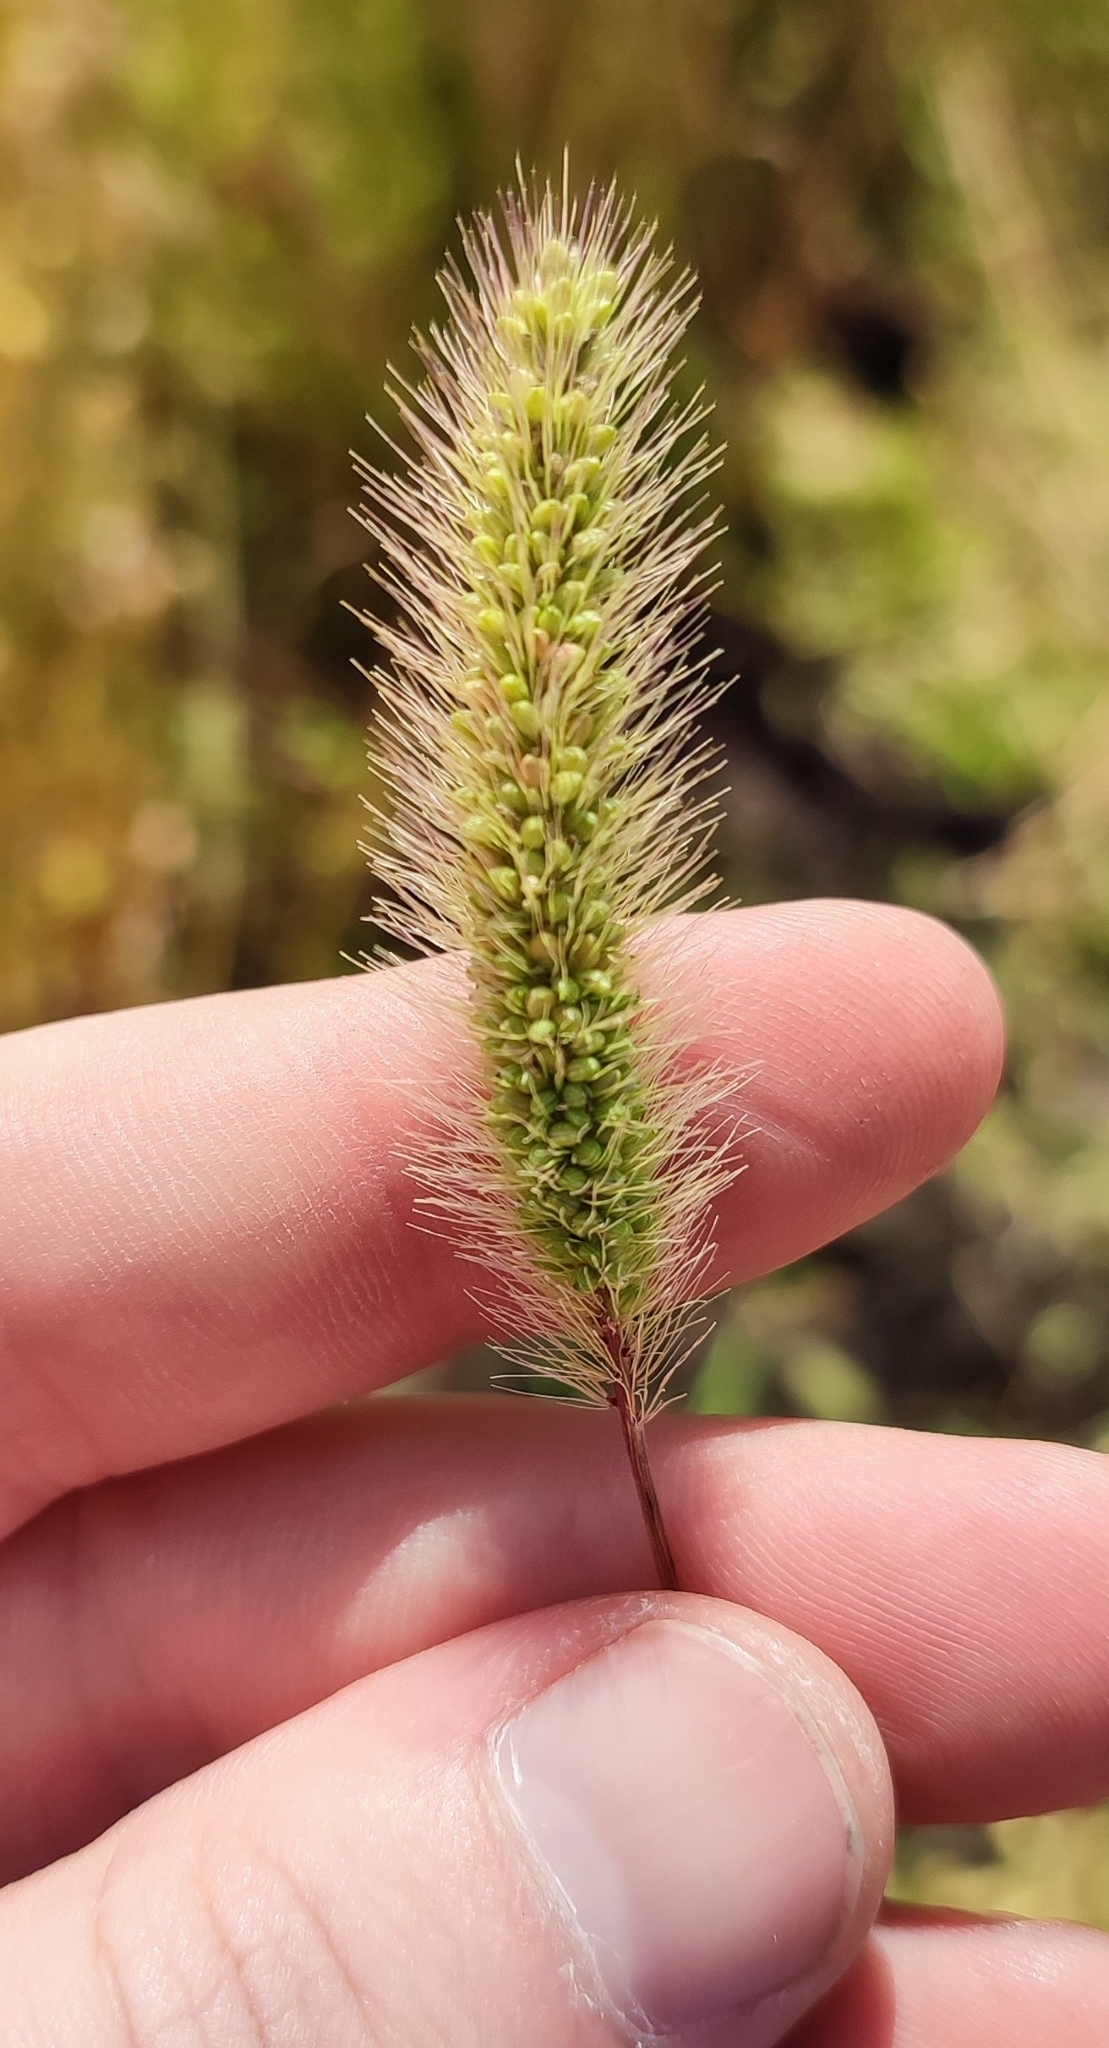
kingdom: Plantae
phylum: Tracheophyta
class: Liliopsida
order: Poales
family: Poaceae
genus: Setaria
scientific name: Setaria viridis
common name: Green bristlegrass
